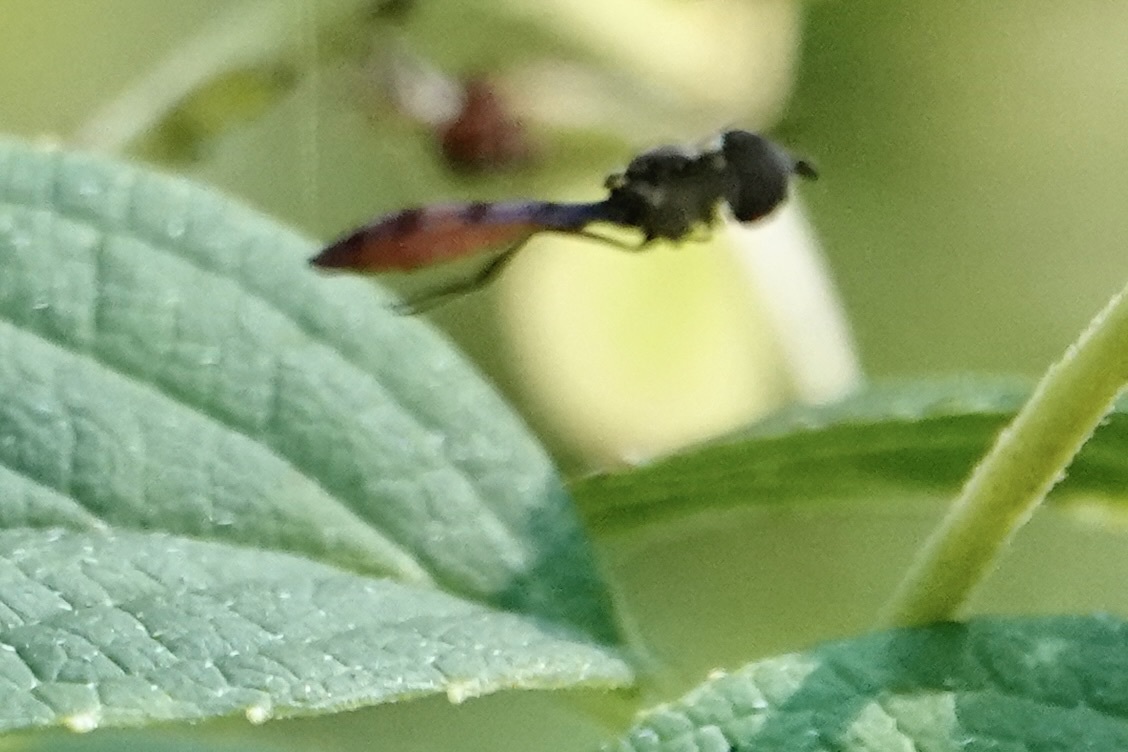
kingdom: Animalia
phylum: Arthropoda
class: Insecta
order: Diptera
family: Syrphidae
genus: Ocyptamus
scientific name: Ocyptamus fuscipennis
